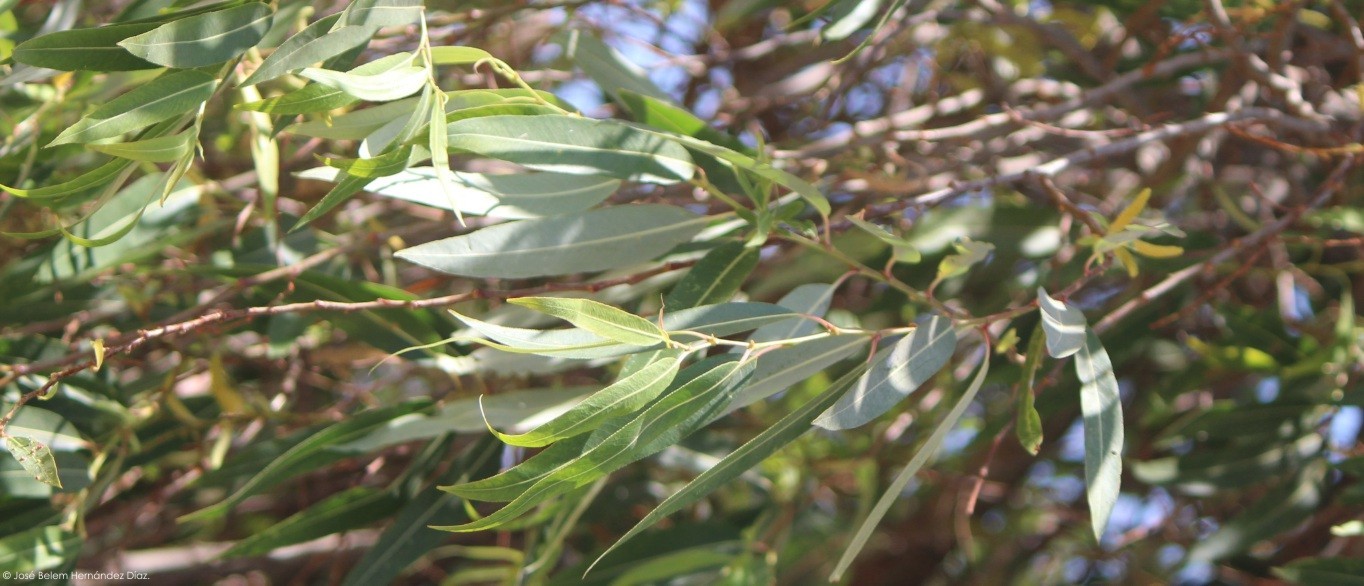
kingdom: Plantae
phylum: Tracheophyta
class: Magnoliopsida
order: Malpighiales
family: Salicaceae
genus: Salix
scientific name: Salix bonplandiana
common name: Bonpland’s willow
